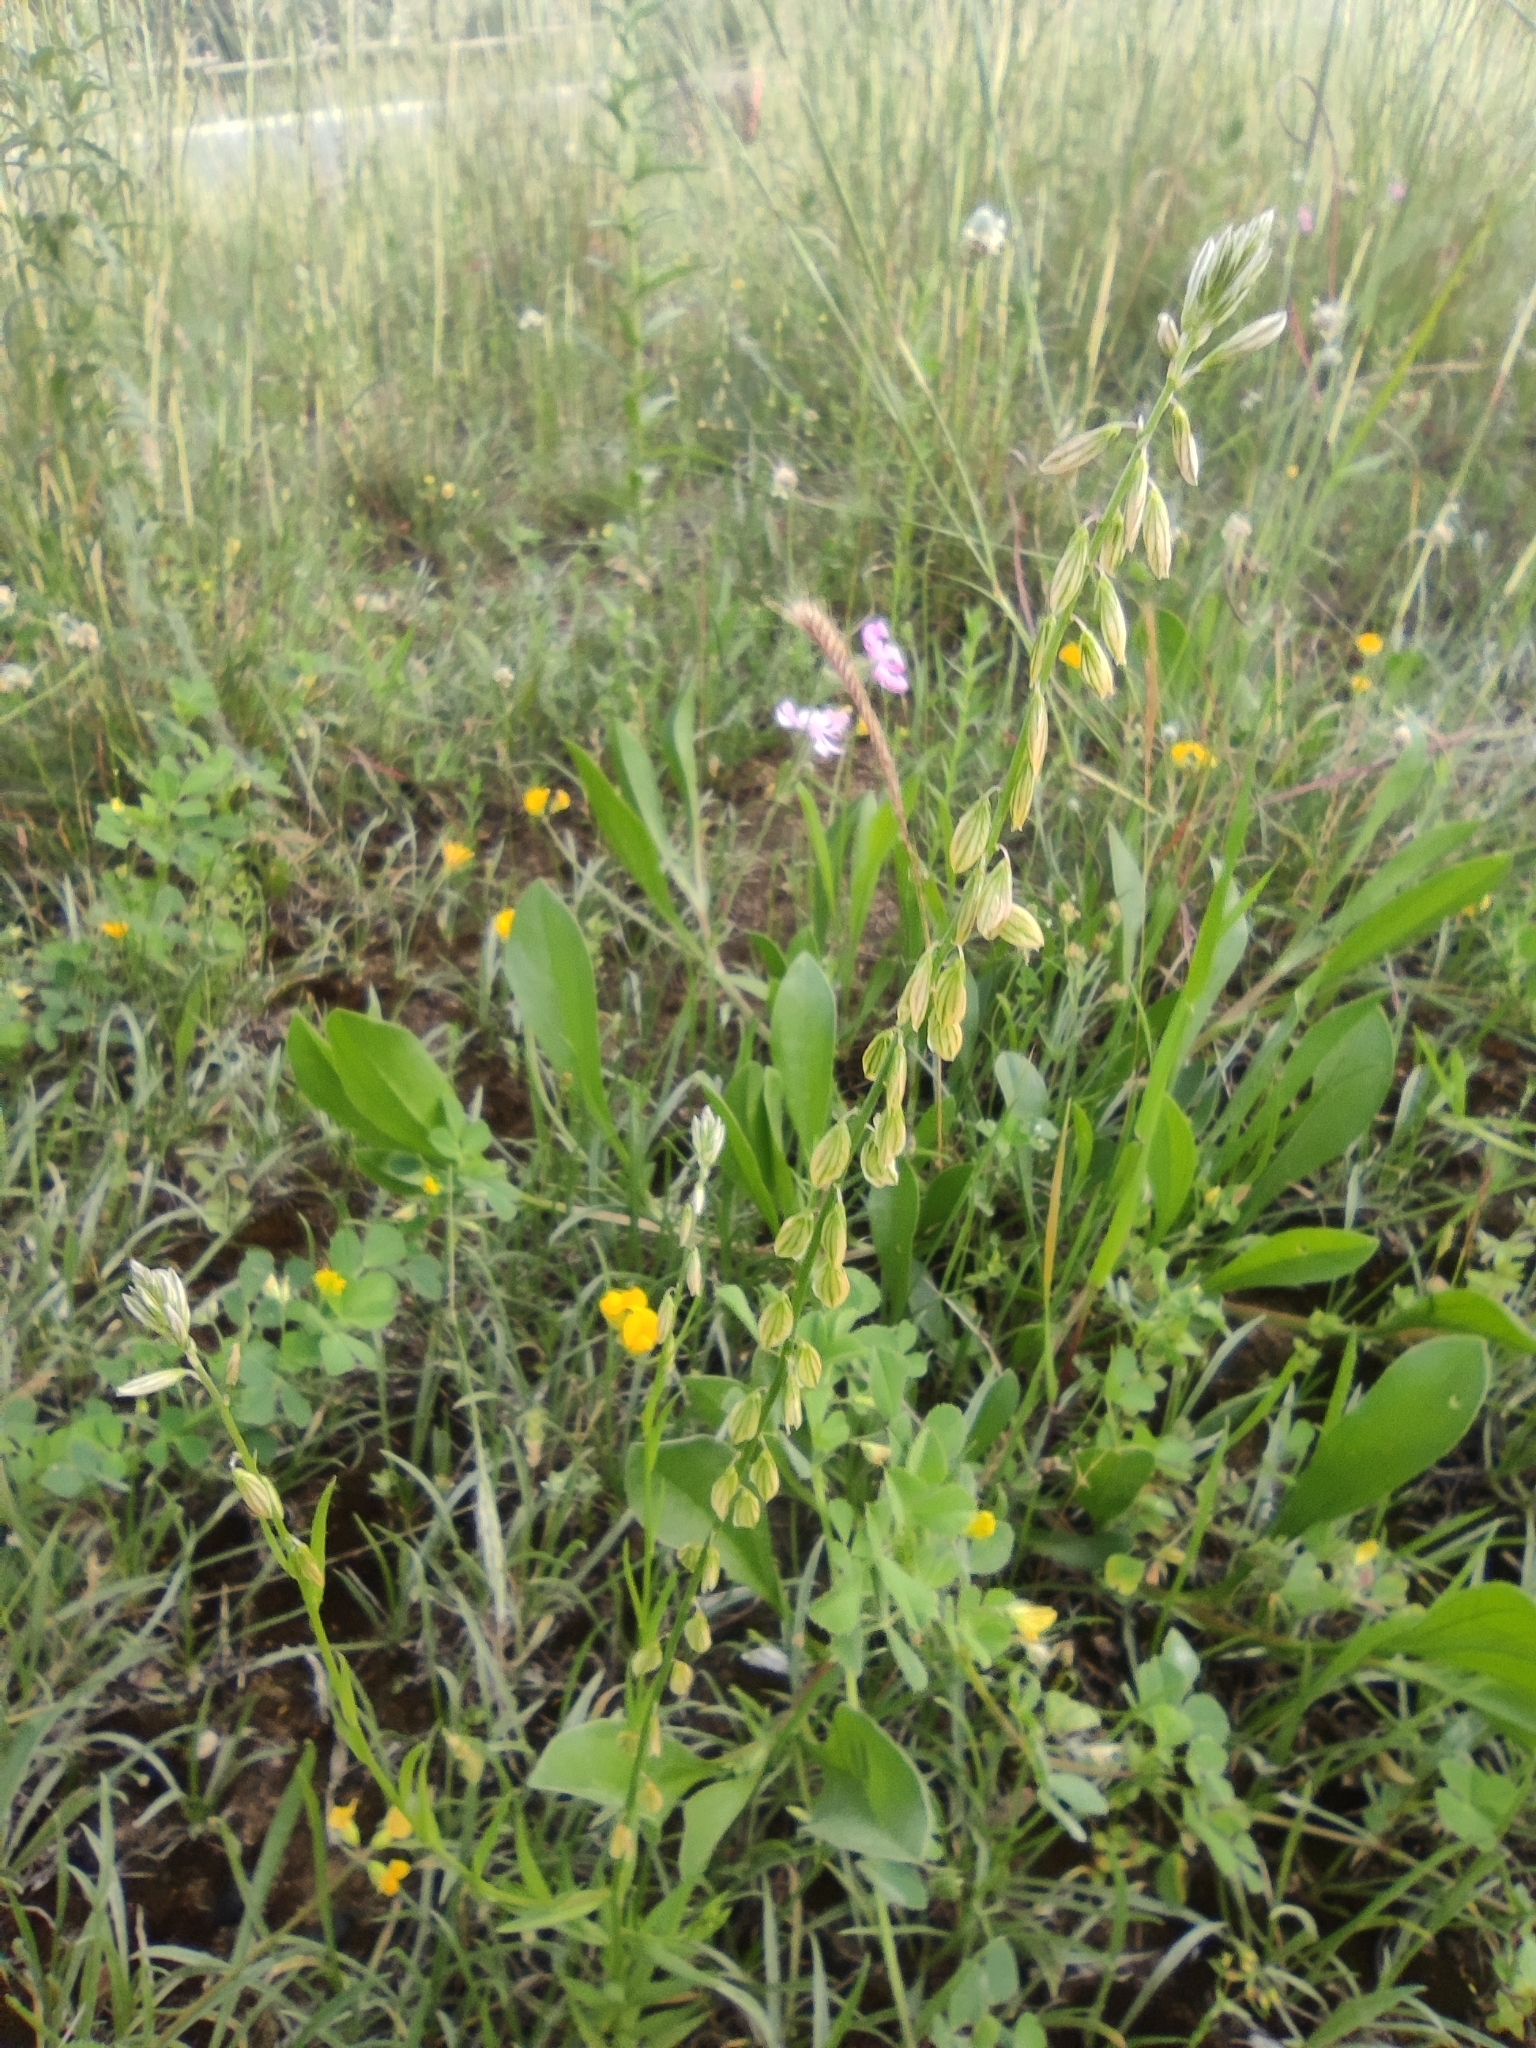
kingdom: Plantae
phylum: Tracheophyta
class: Magnoliopsida
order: Fabales
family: Polygalaceae
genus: Polygala
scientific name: Polygala monspeliaca
